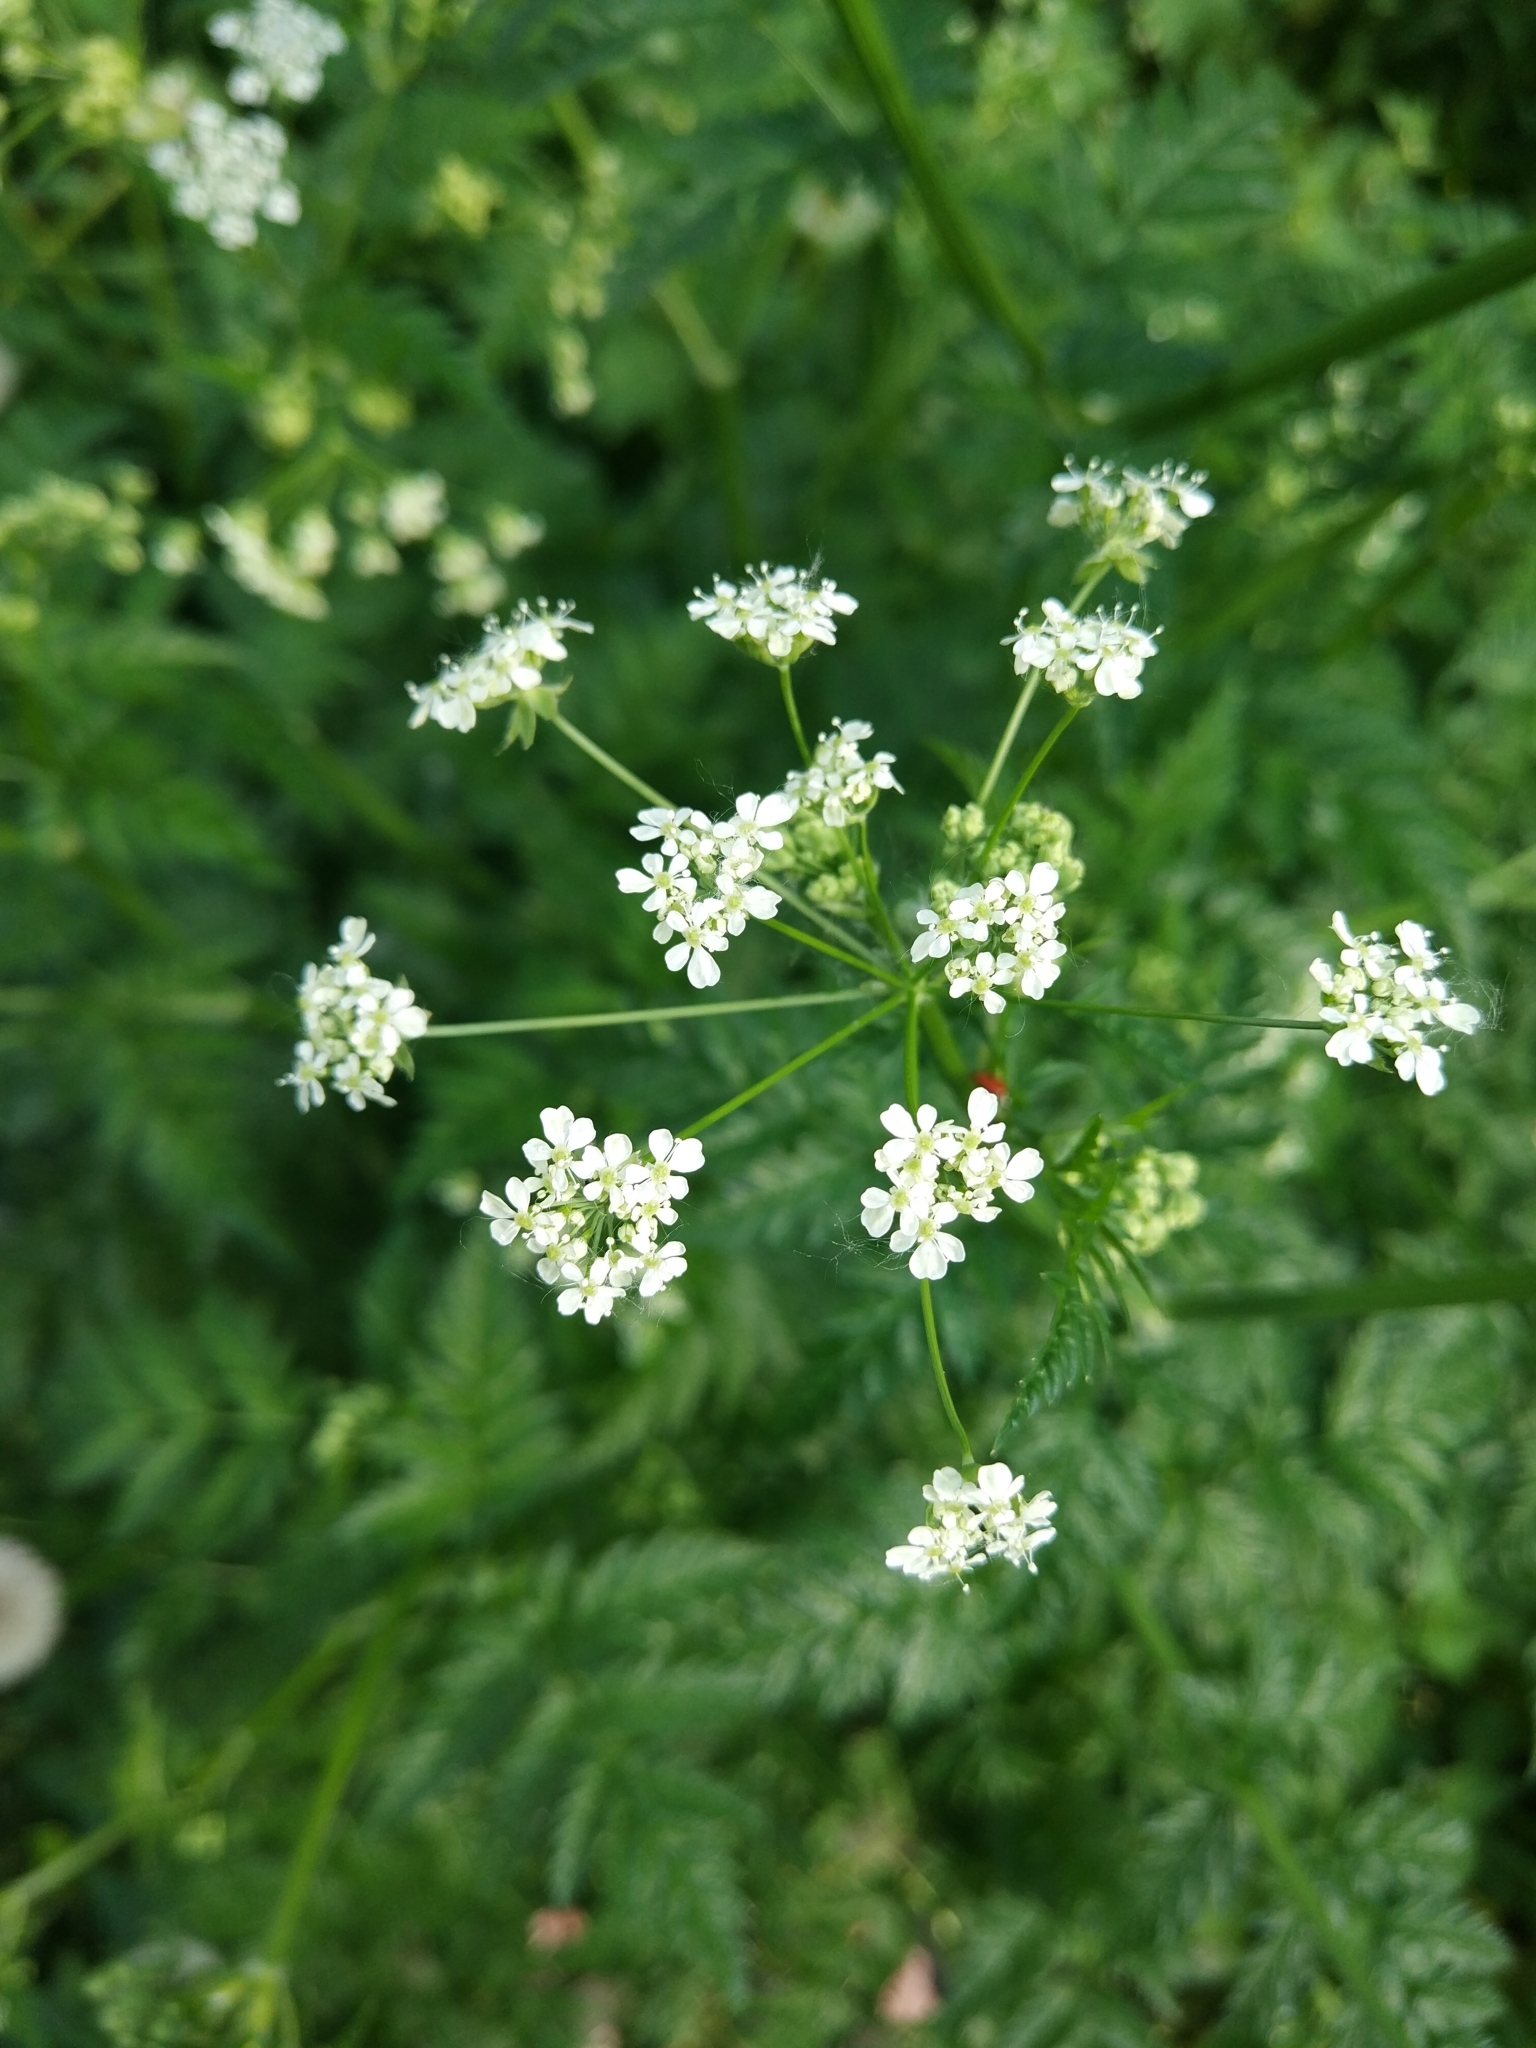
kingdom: Plantae
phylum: Tracheophyta
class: Magnoliopsida
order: Apiales
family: Apiaceae
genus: Anthriscus
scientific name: Anthriscus sylvestris
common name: Cow parsley
